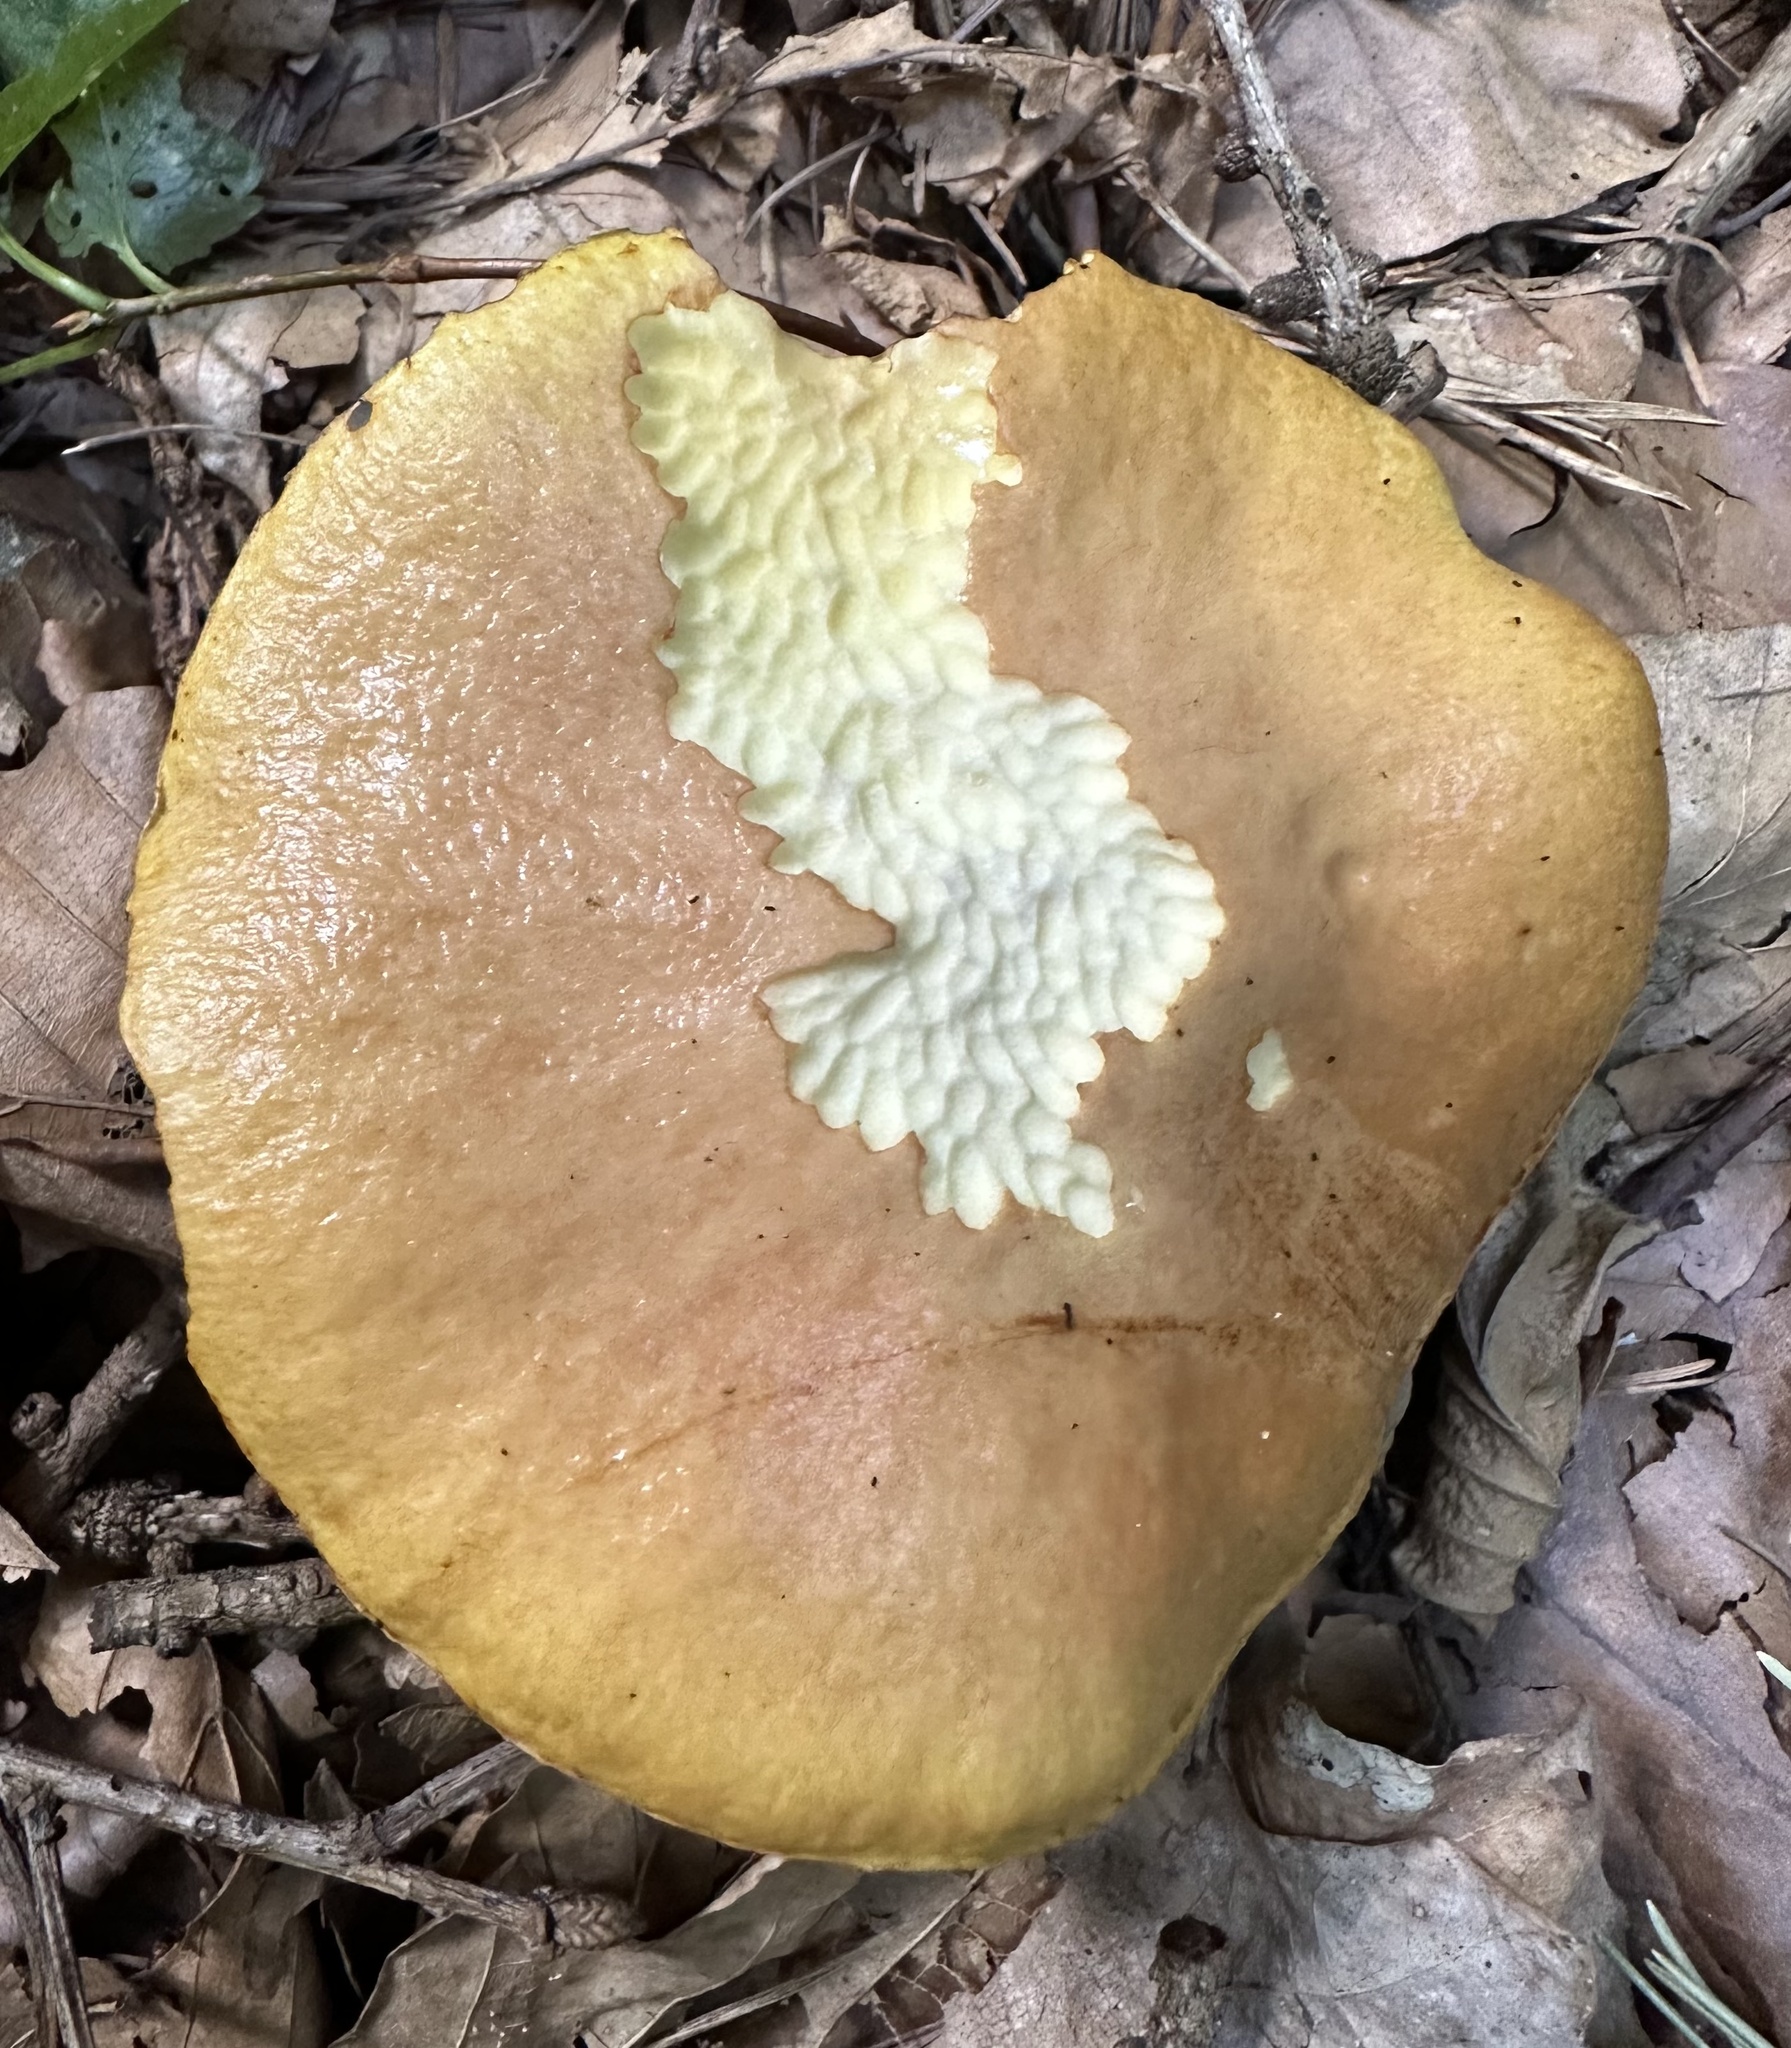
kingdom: Fungi
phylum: Basidiomycota
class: Agaricomycetes
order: Boletales
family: Suillaceae
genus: Suillus
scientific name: Suillus grevillei
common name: Larch bolete
